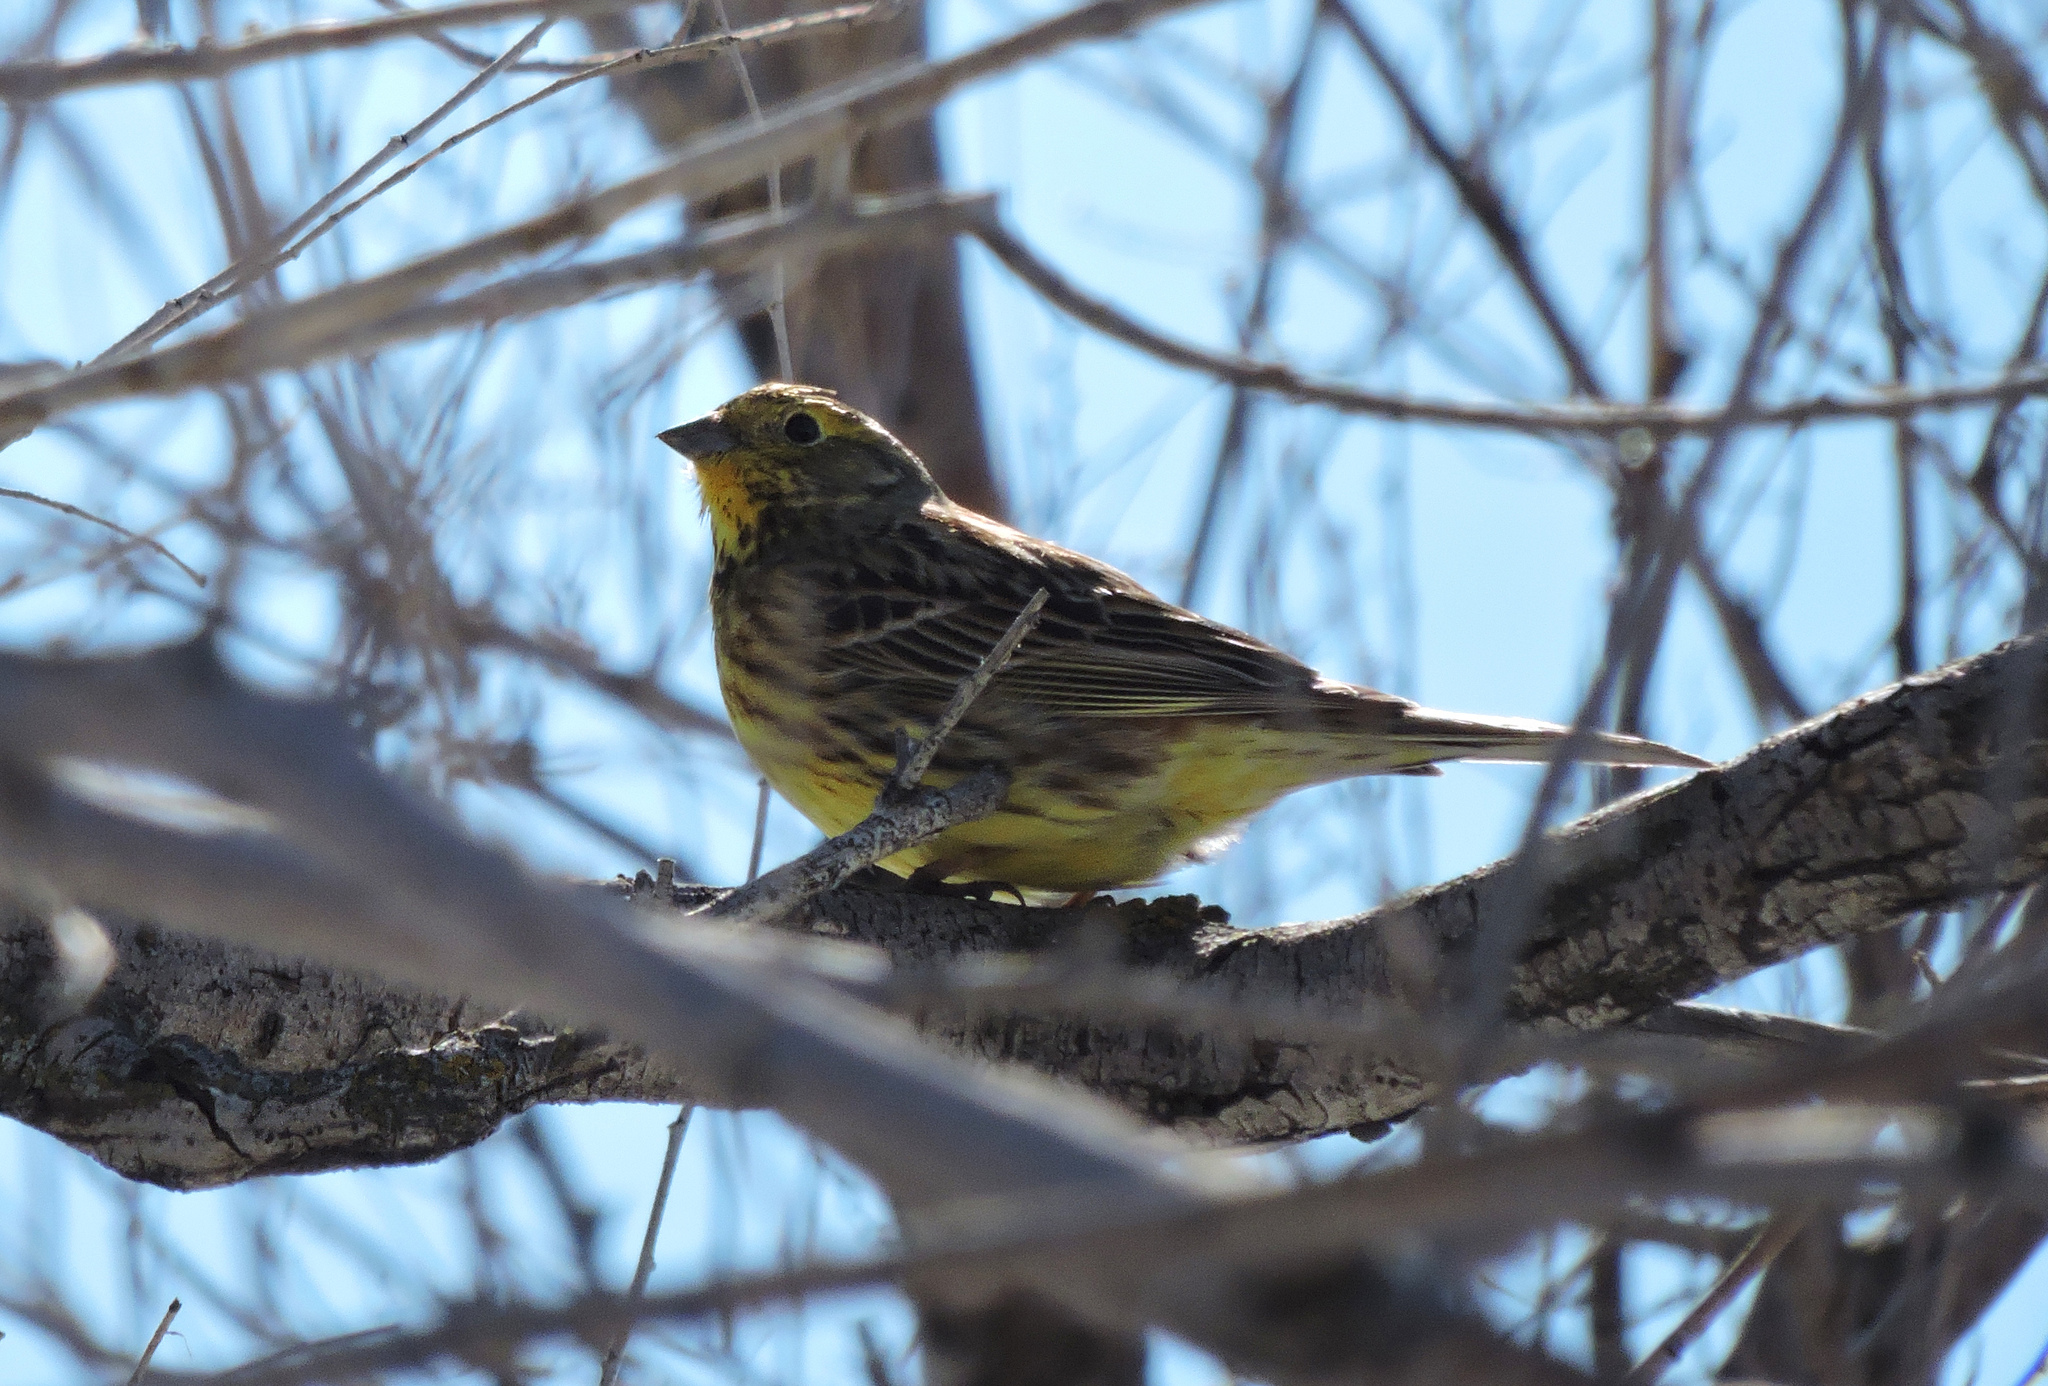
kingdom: Animalia
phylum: Chordata
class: Aves
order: Passeriformes
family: Emberizidae
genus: Emberiza
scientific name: Emberiza citrinella
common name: Yellowhammer
